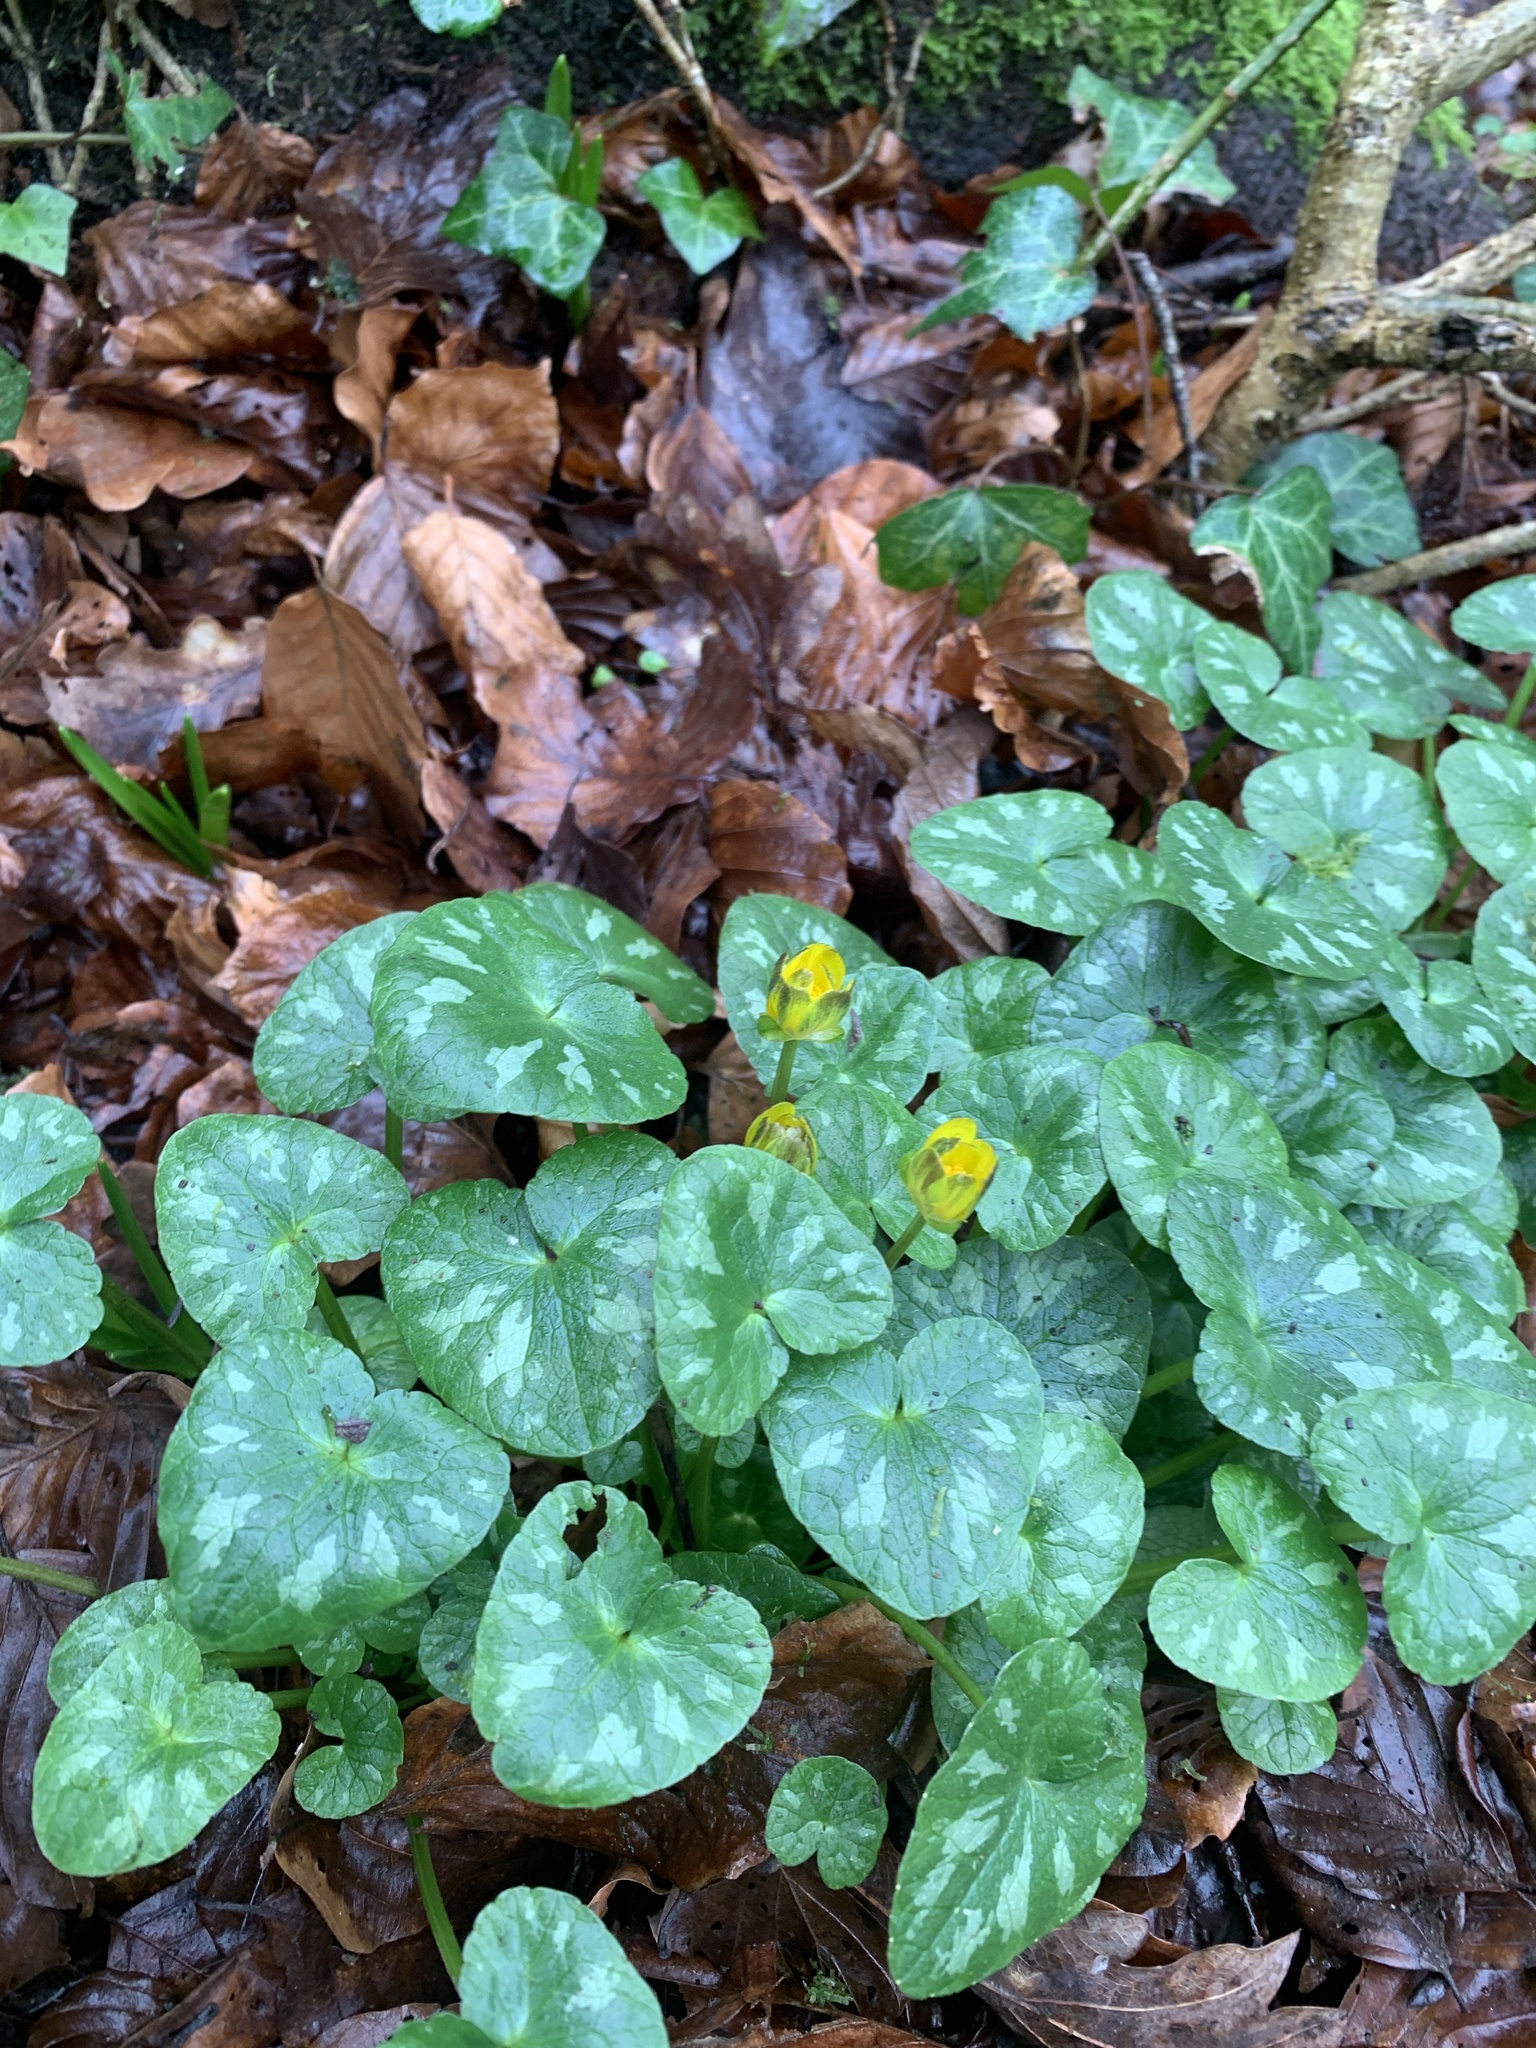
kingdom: Plantae
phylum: Tracheophyta
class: Magnoliopsida
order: Ranunculales
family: Ranunculaceae
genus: Ficaria
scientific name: Ficaria verna
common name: Lesser celandine
